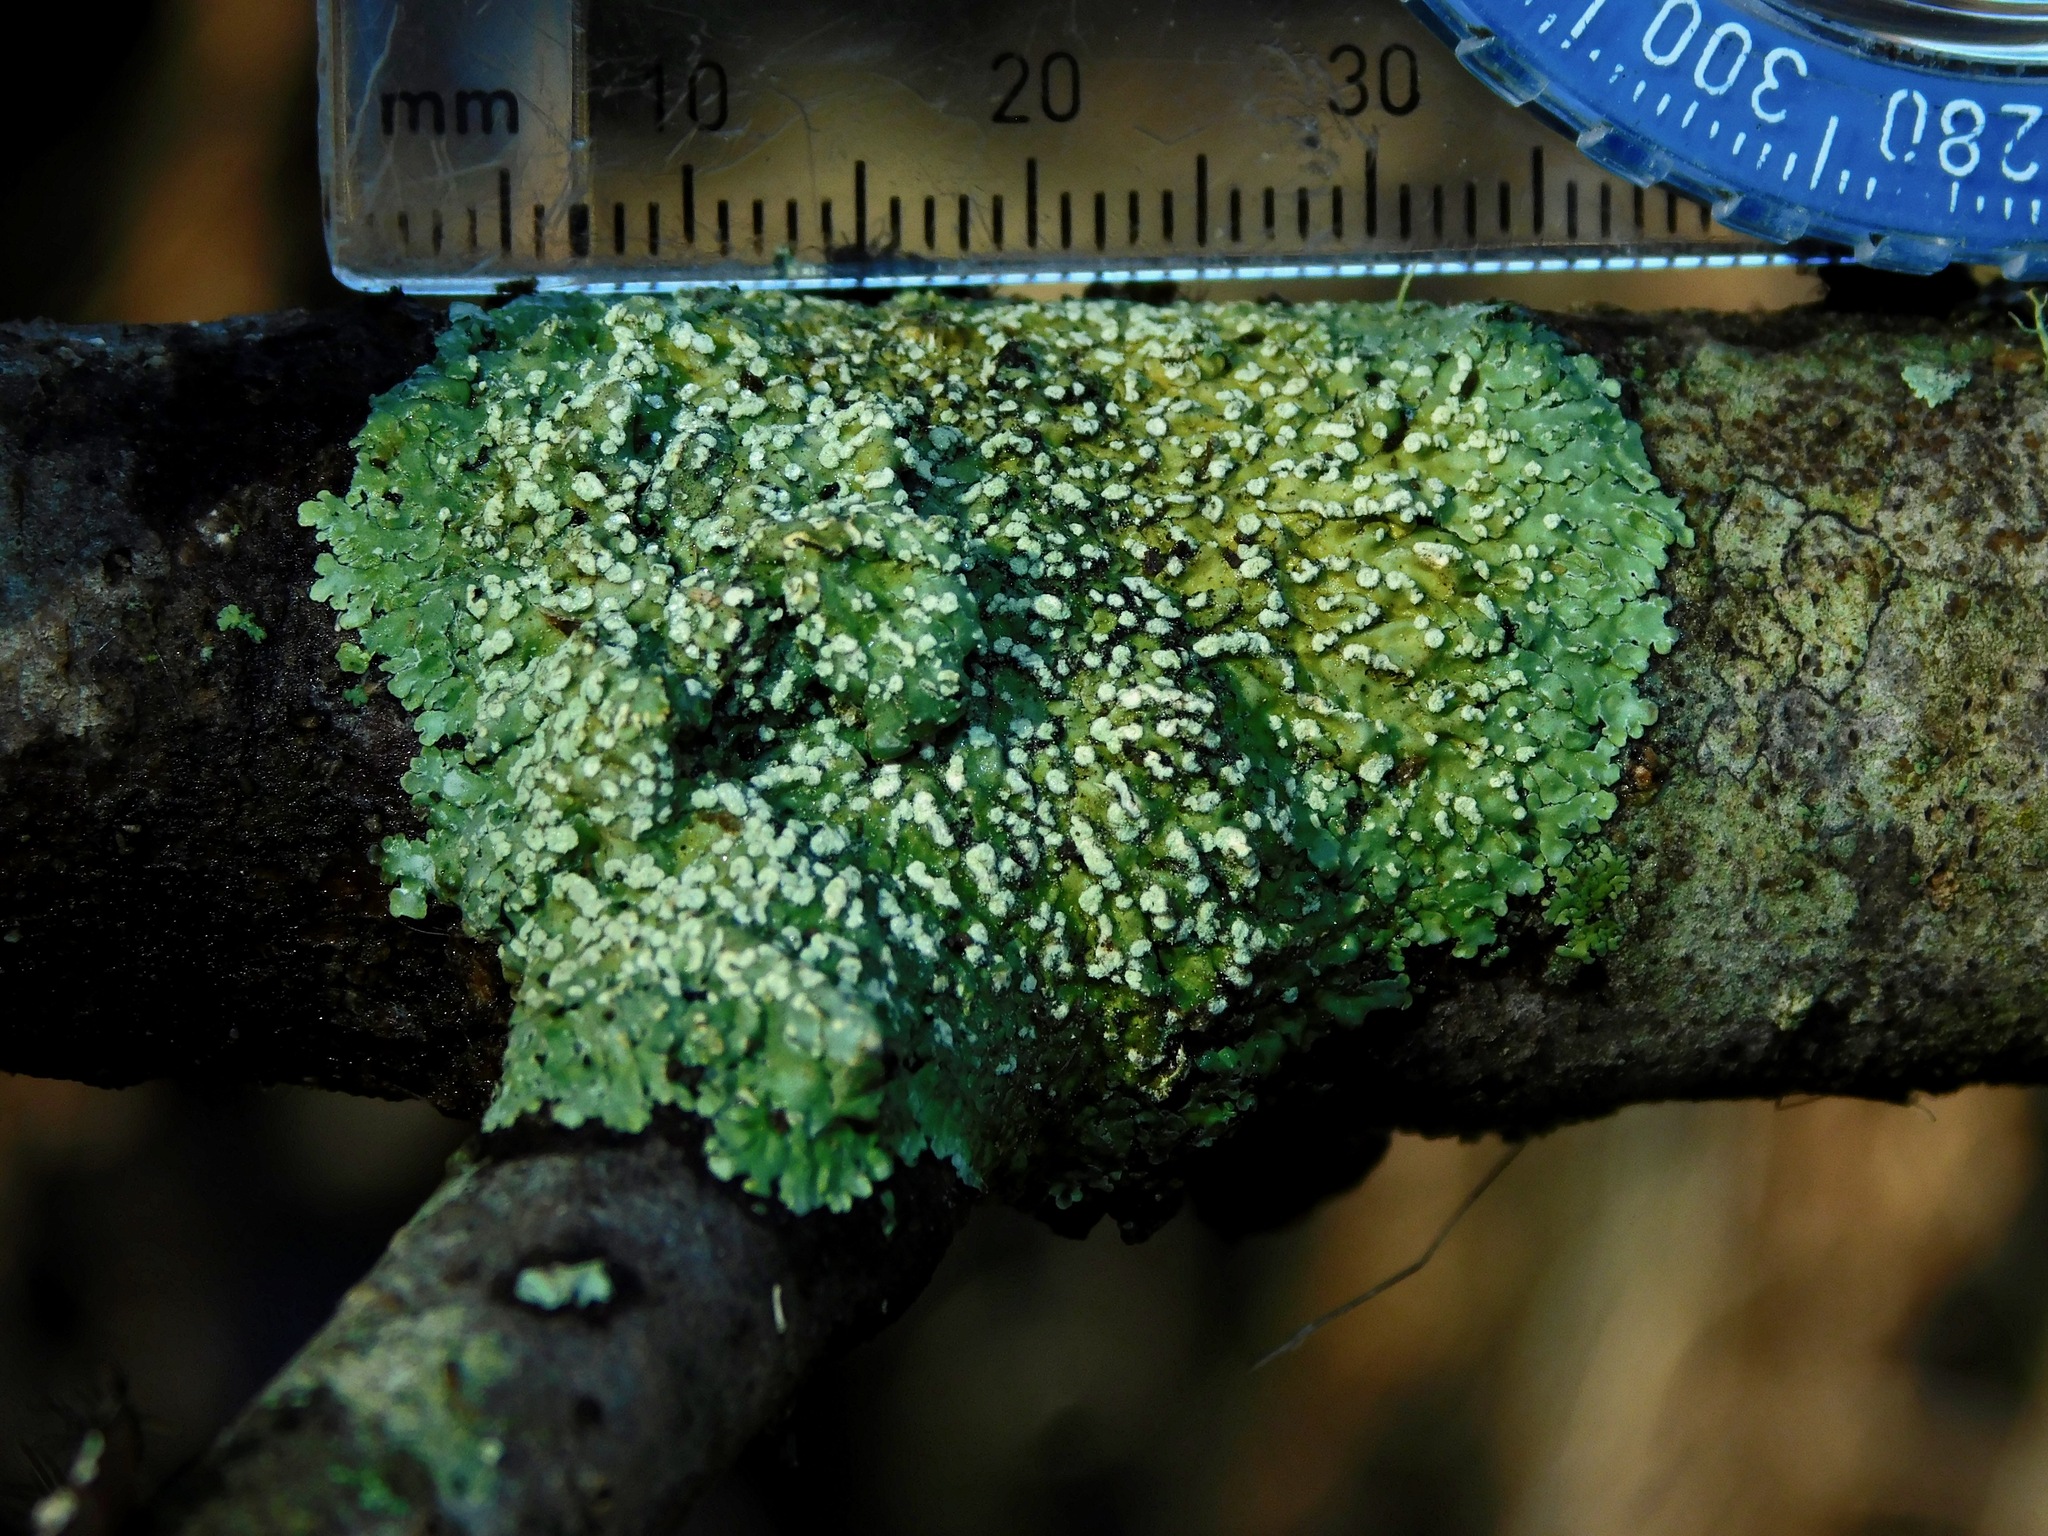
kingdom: Fungi
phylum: Ascomycota
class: Lecanoromycetes
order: Caliciales
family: Physciaceae
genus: Polyblastidium
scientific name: Polyblastidium albicans
